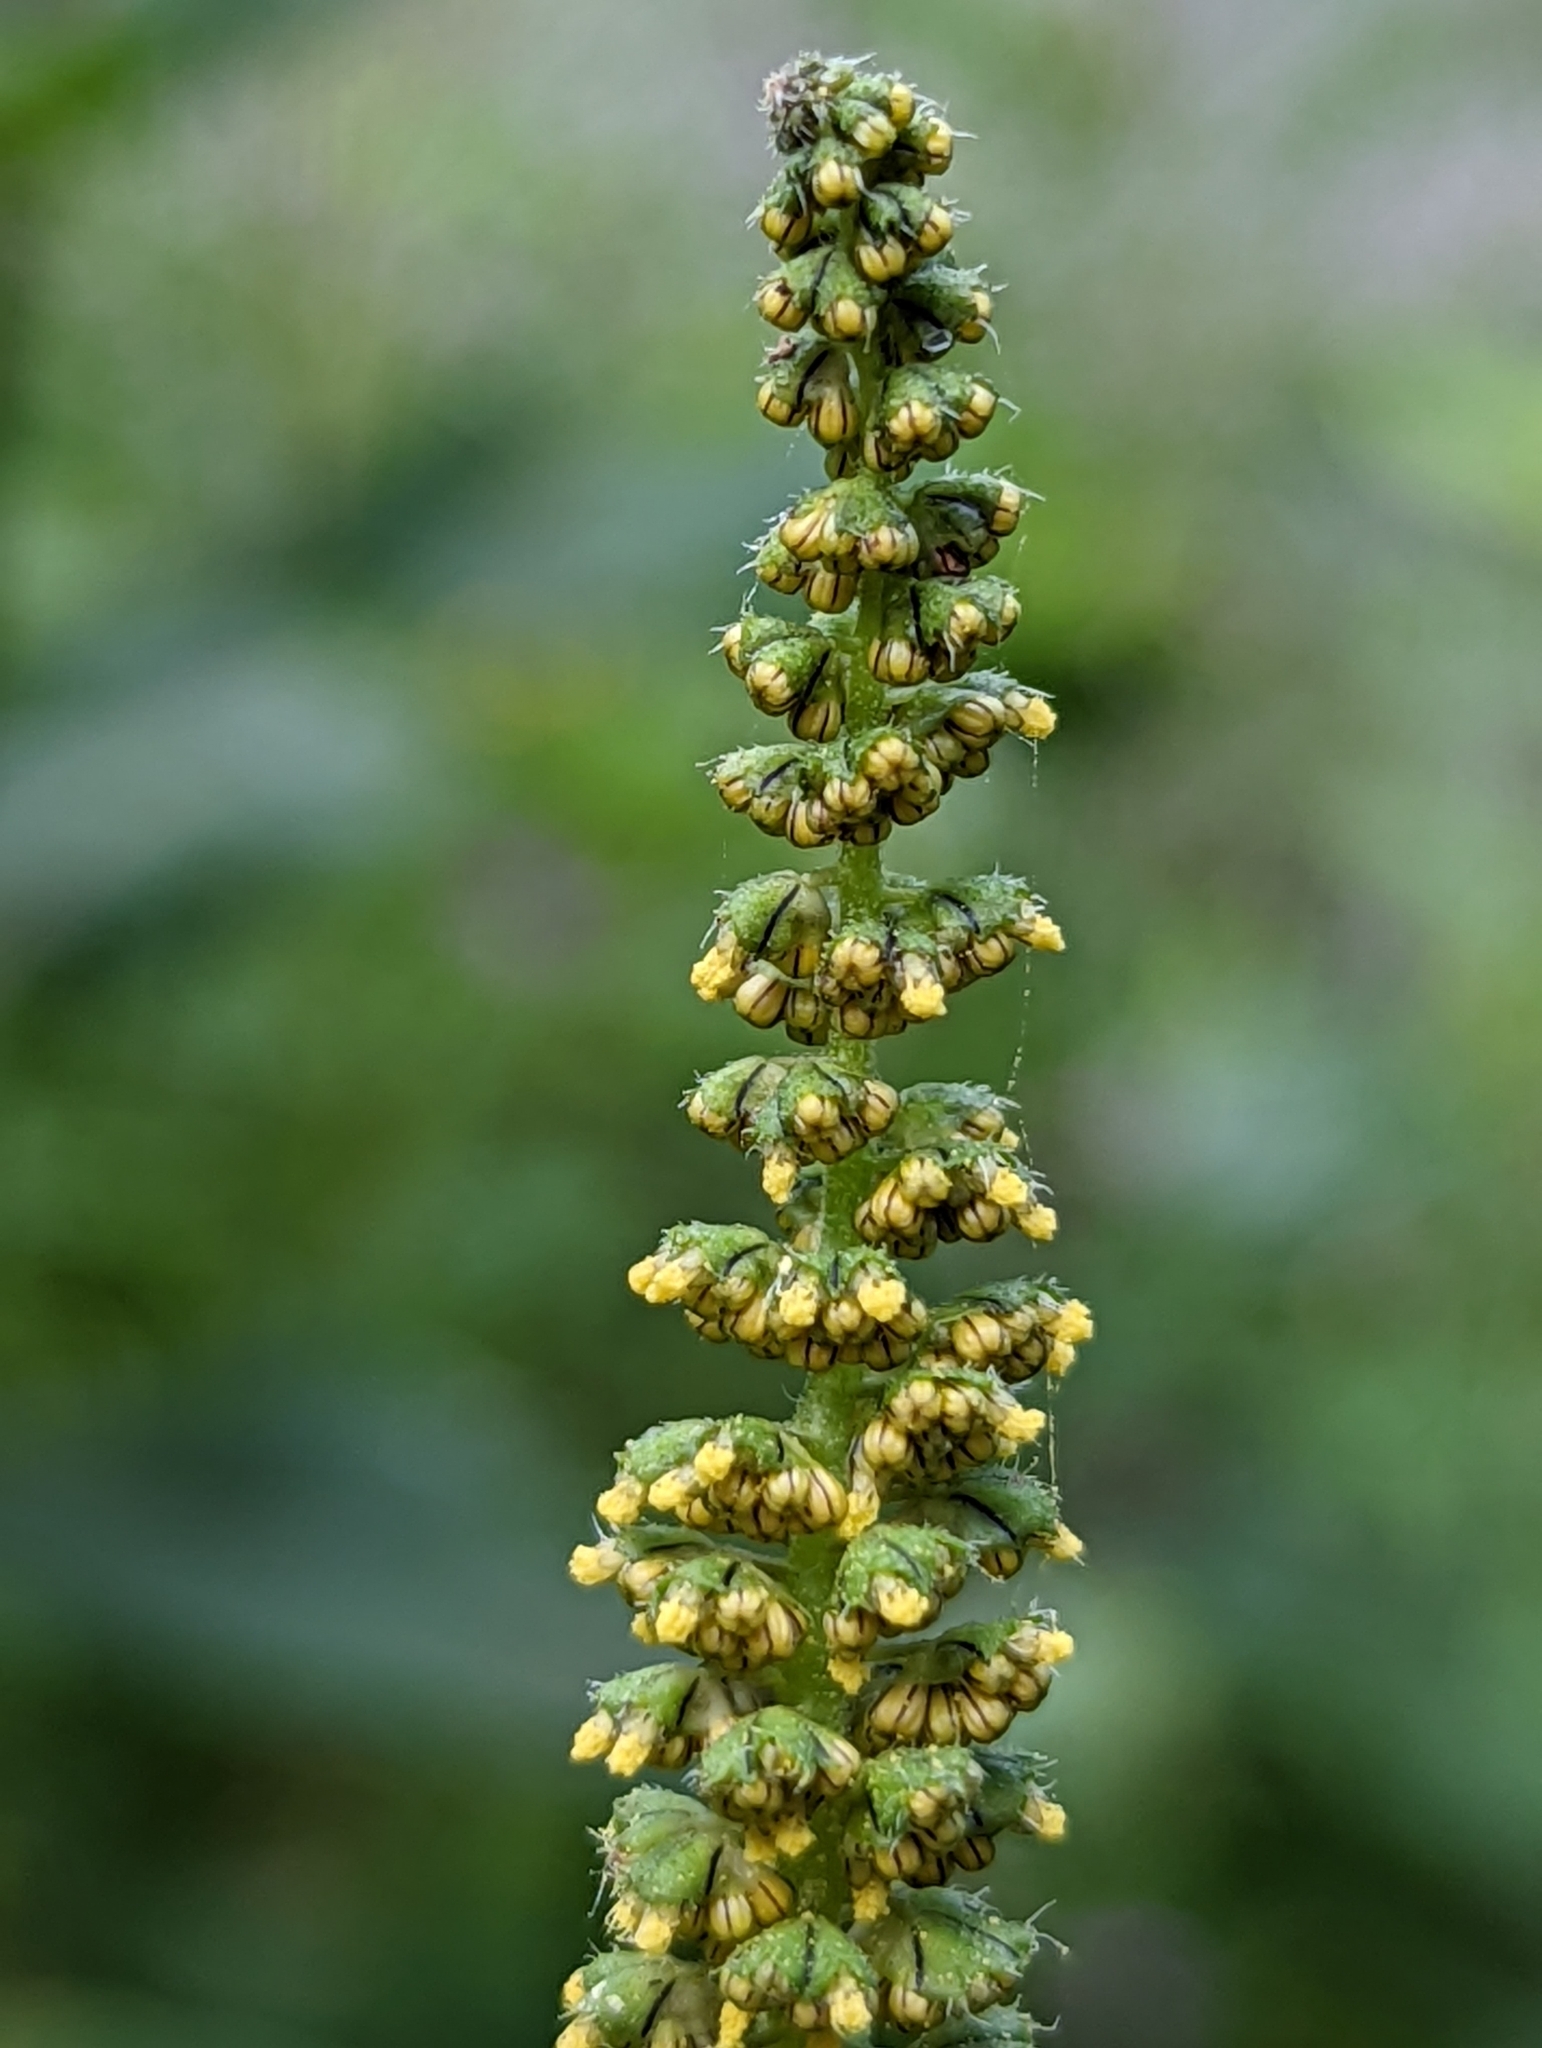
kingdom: Plantae
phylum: Tracheophyta
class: Magnoliopsida
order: Asterales
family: Asteraceae
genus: Ambrosia
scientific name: Ambrosia trifida
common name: Giant ragweed
